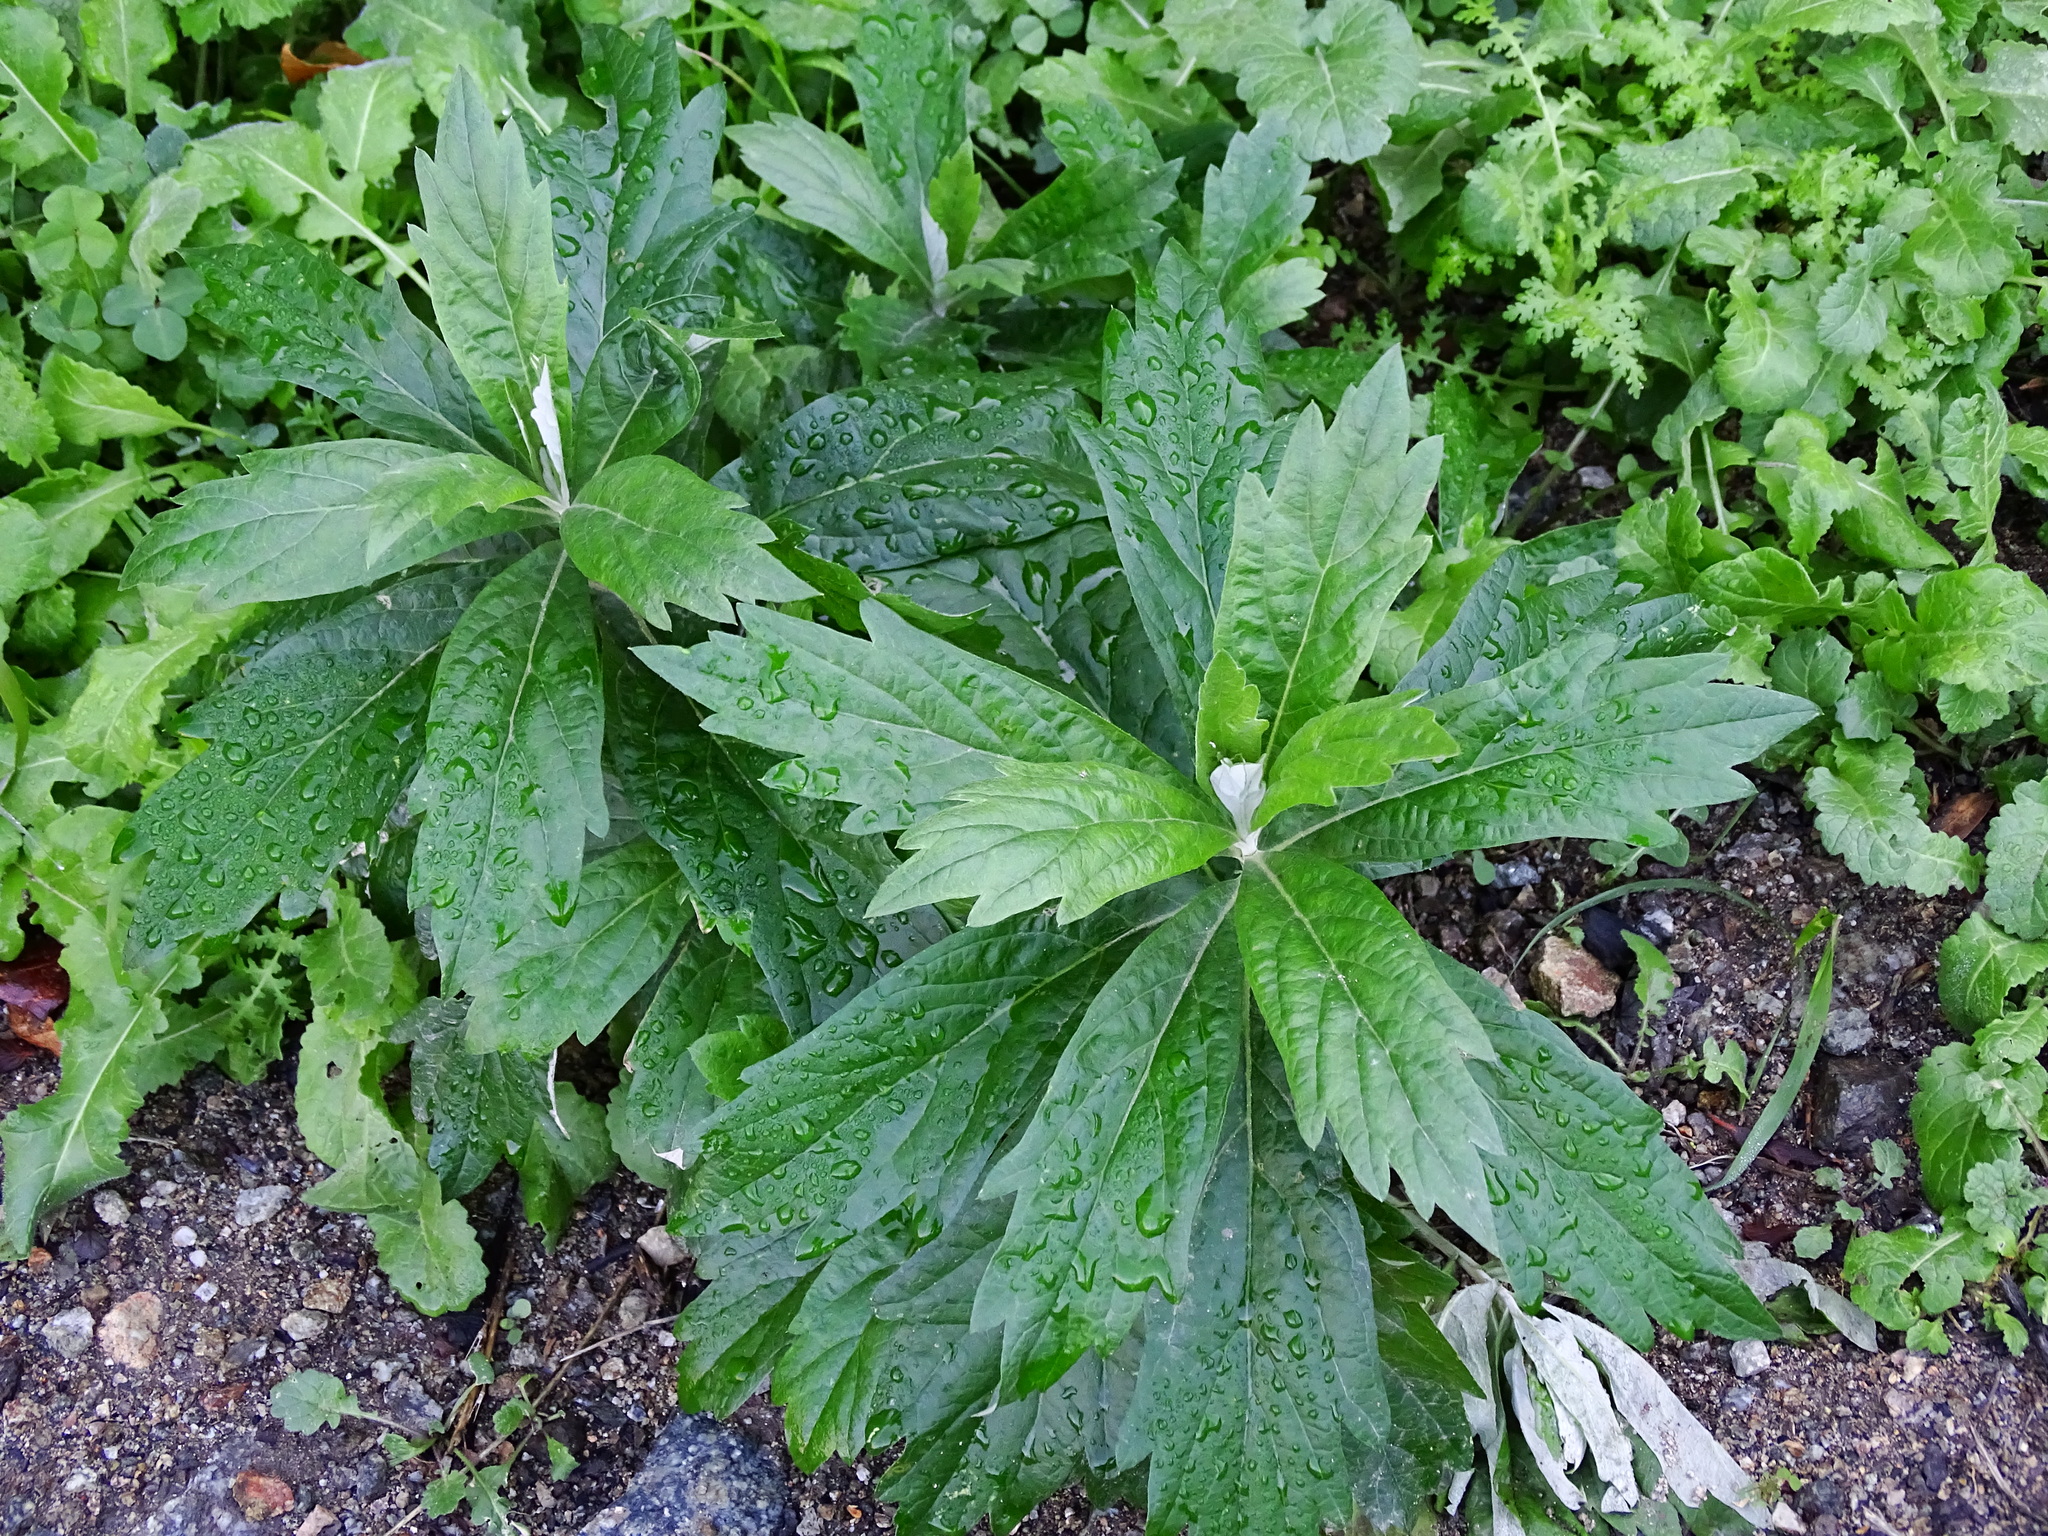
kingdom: Plantae
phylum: Tracheophyta
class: Magnoliopsida
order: Asterales
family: Asteraceae
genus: Artemisia
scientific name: Artemisia douglasiana
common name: Northwest mugwort
